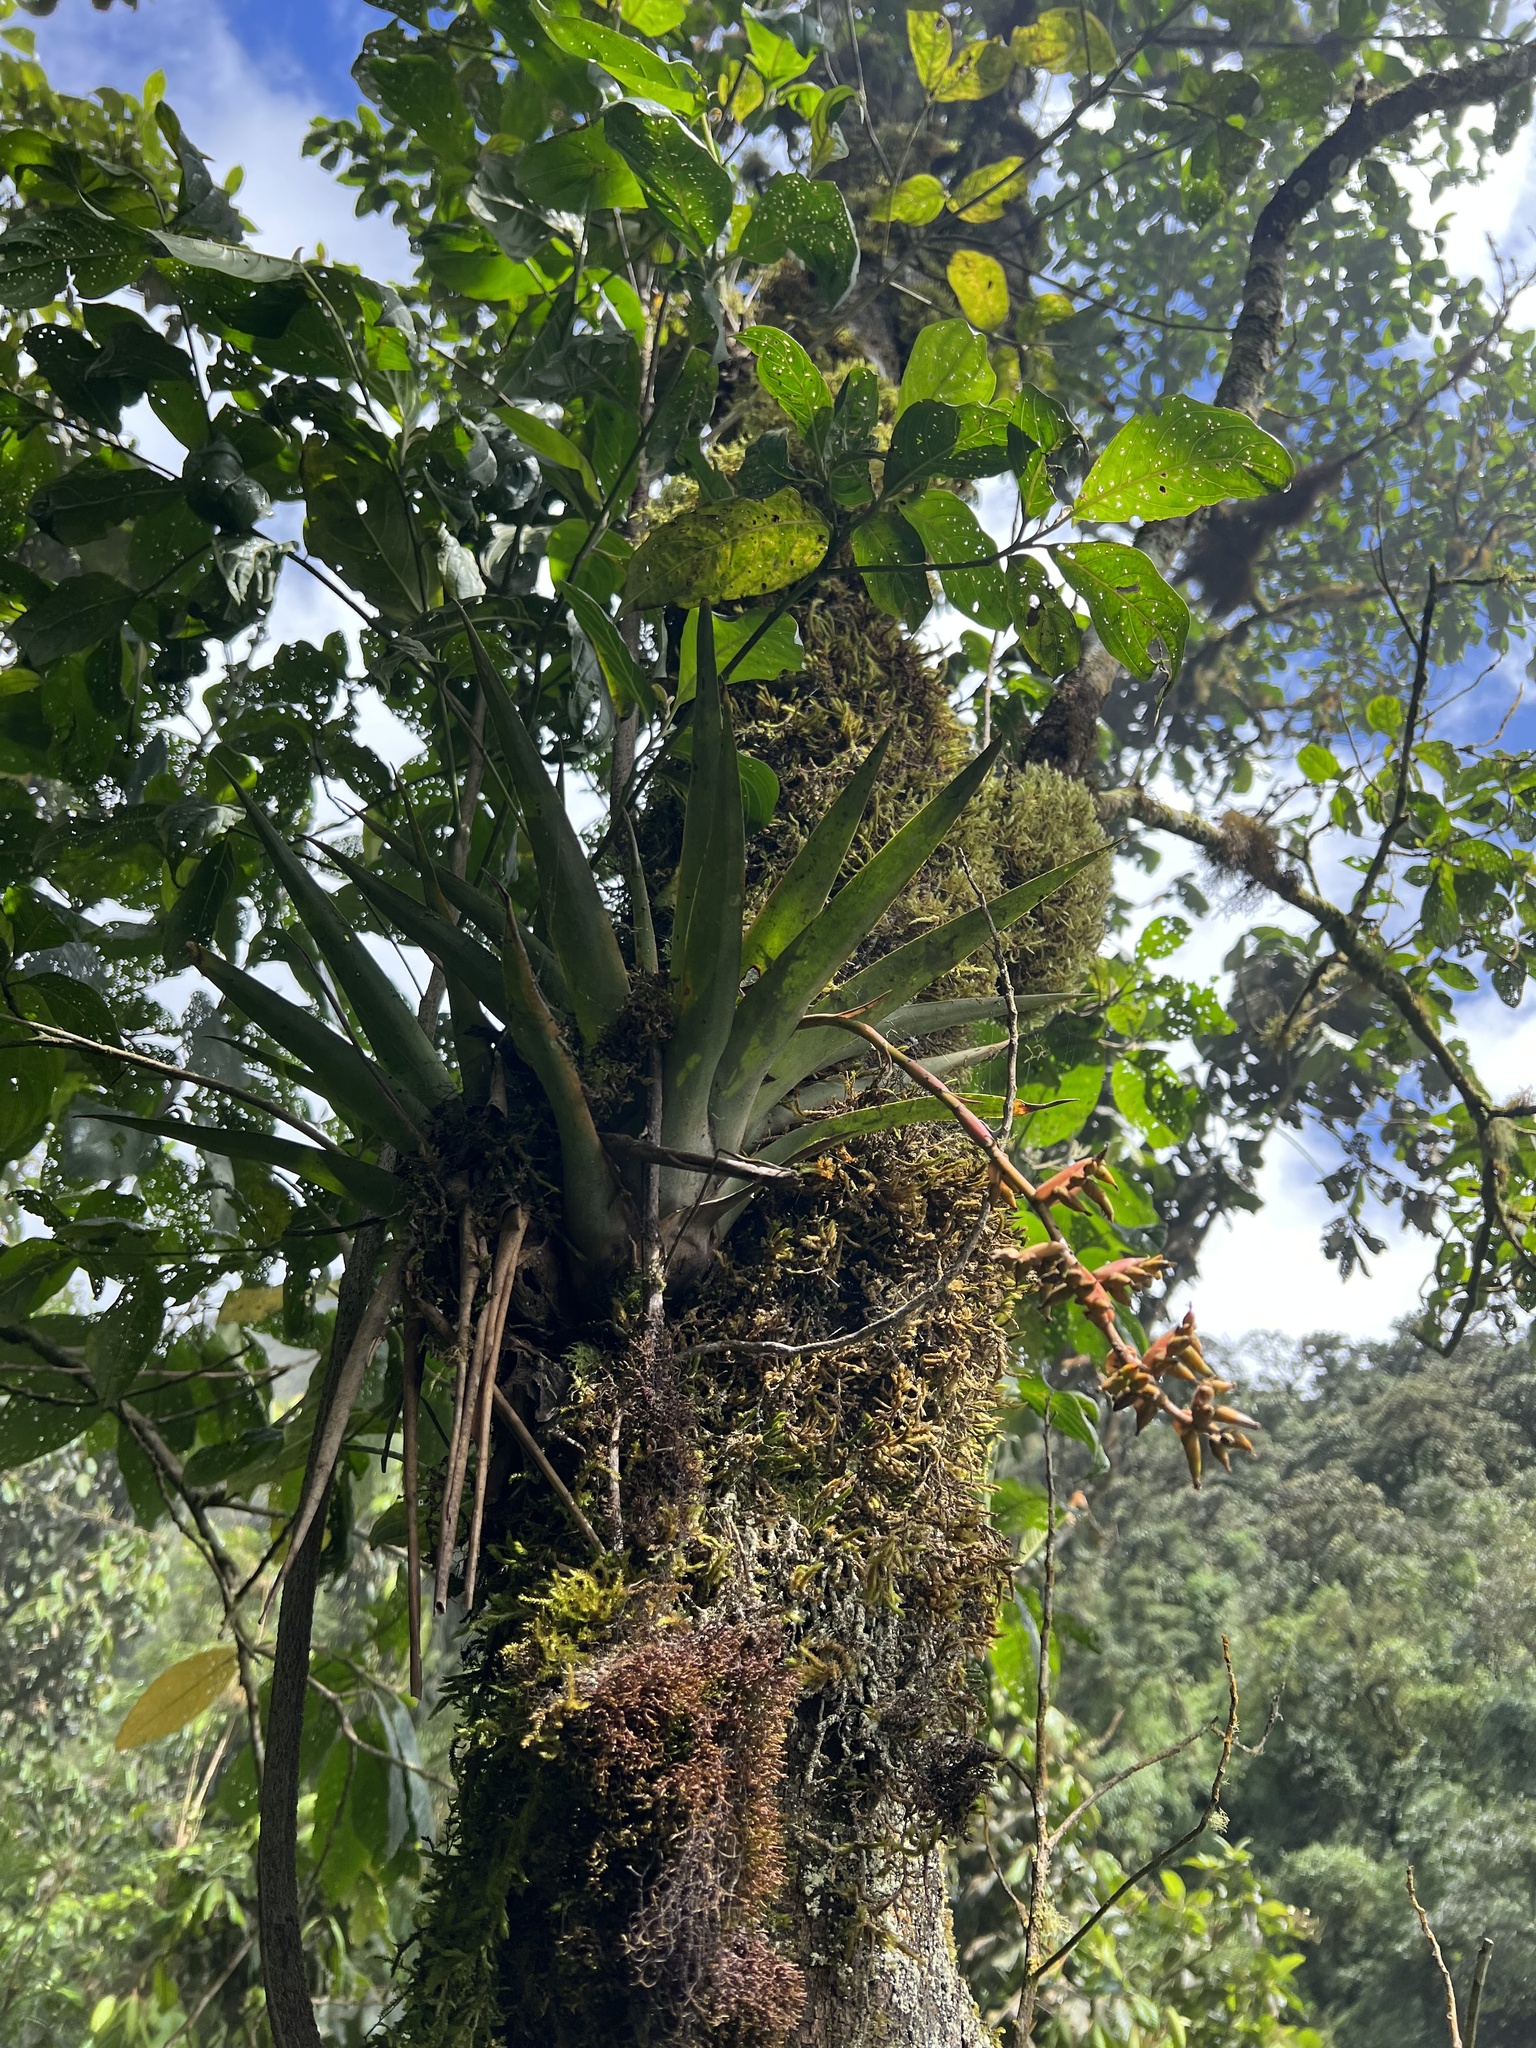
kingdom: Plantae
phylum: Tracheophyta
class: Liliopsida
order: Poales
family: Bromeliaceae
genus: Racinaea
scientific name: Racinaea tetrantha
